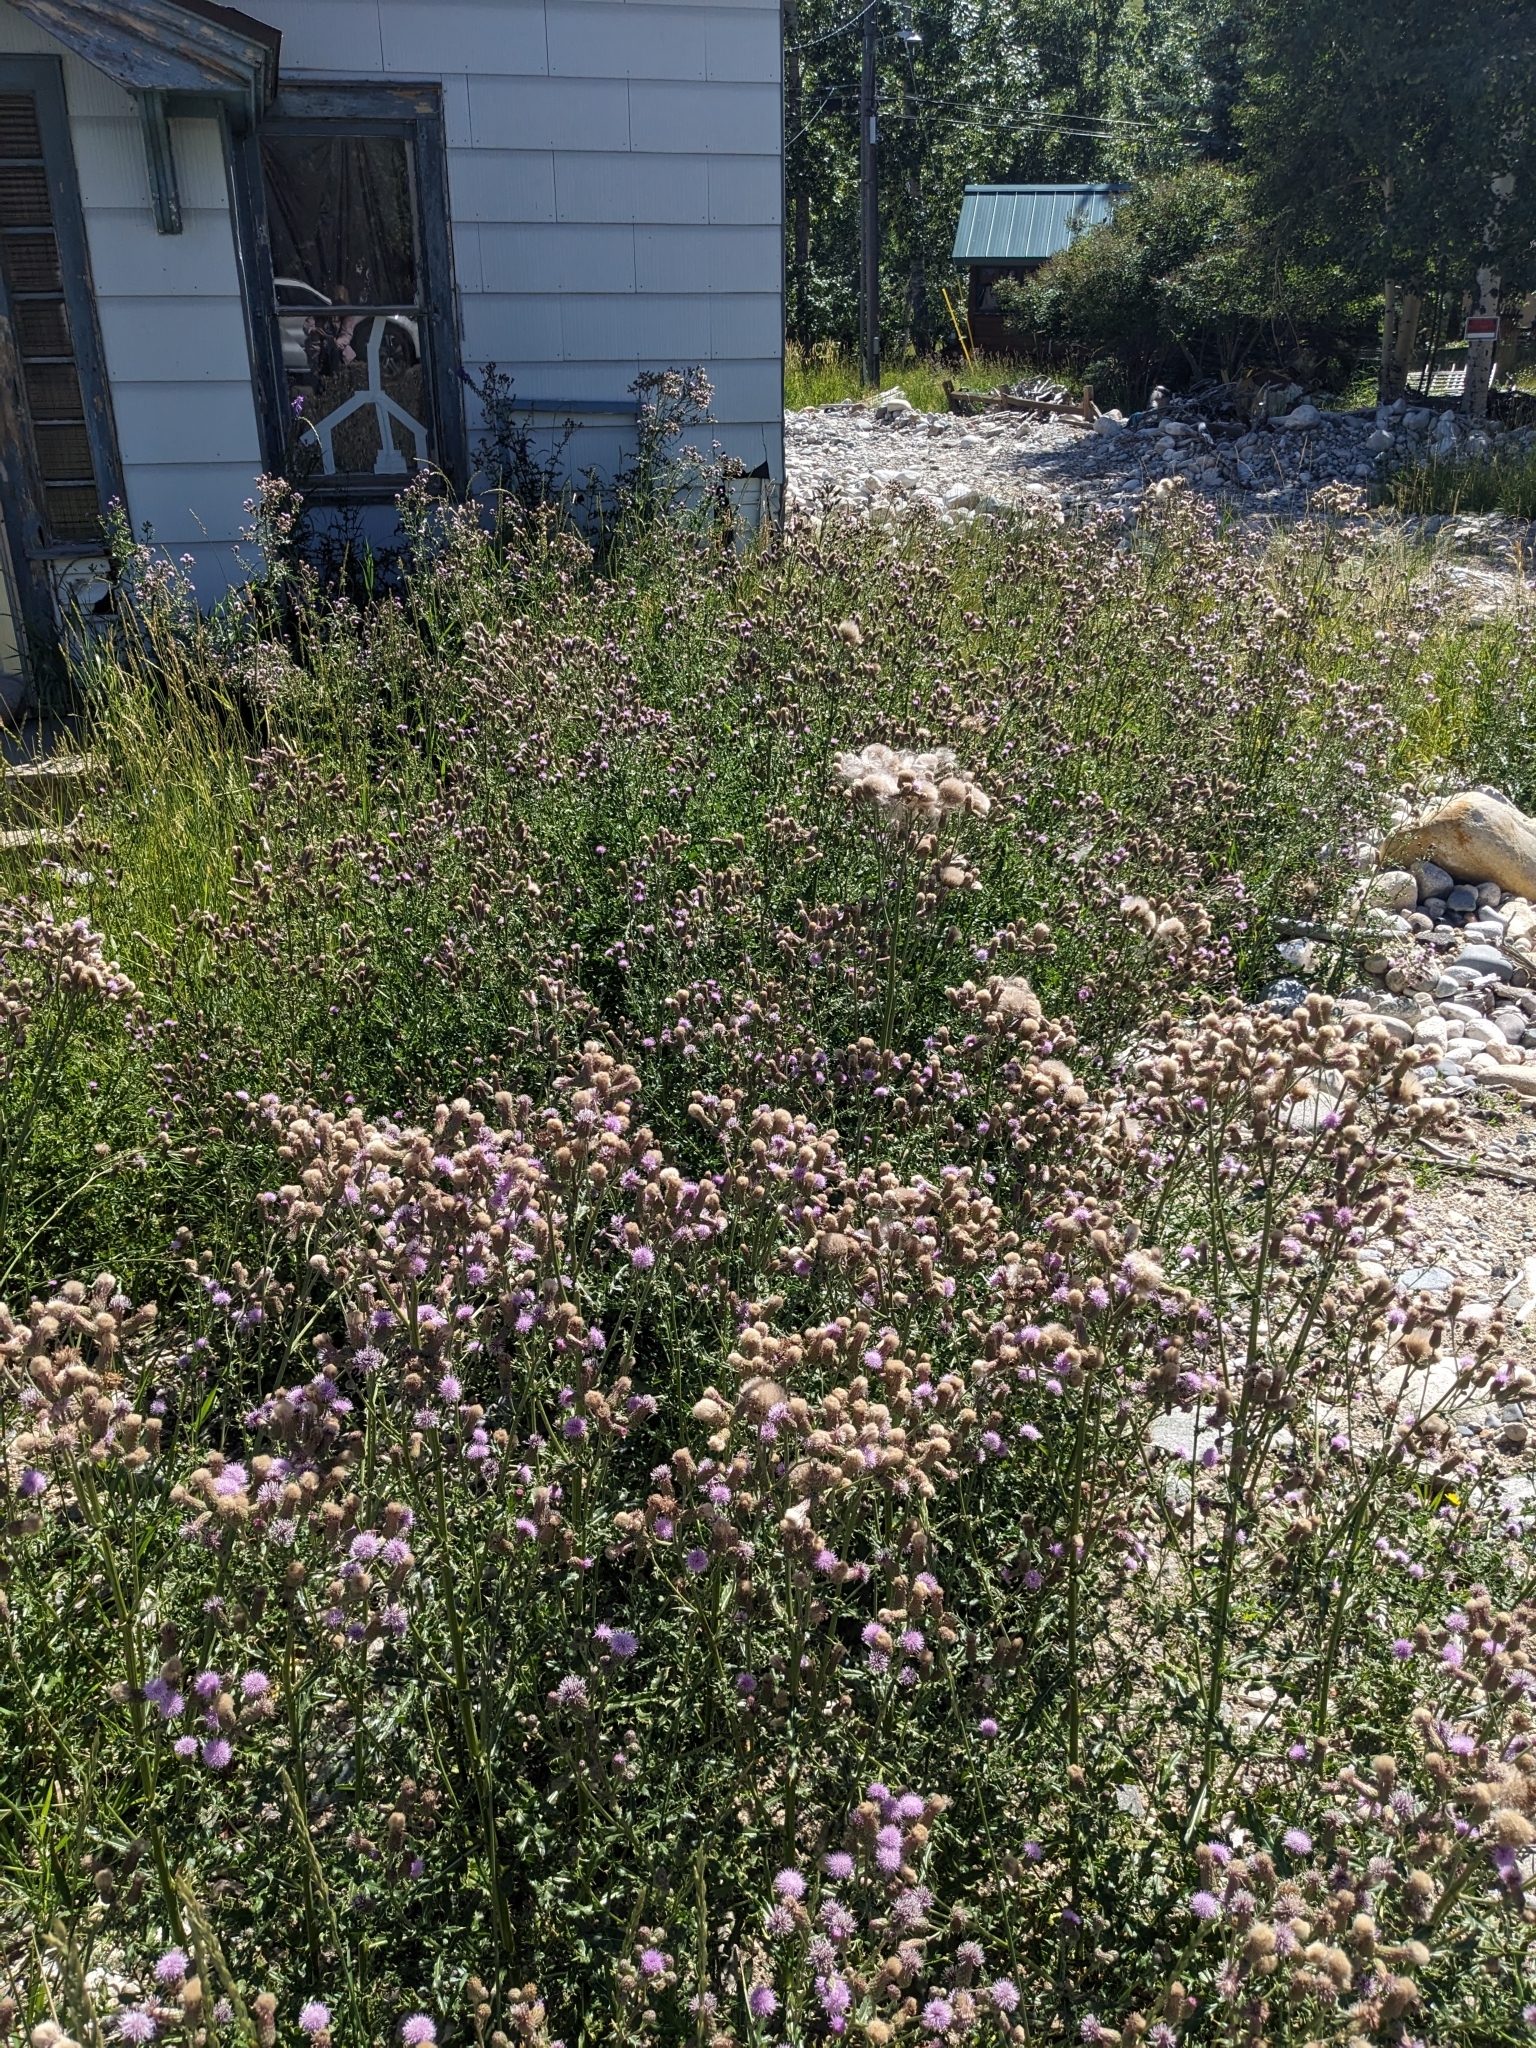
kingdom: Plantae
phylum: Tracheophyta
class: Magnoliopsida
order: Asterales
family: Asteraceae
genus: Cirsium
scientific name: Cirsium arvense
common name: Creeping thistle
